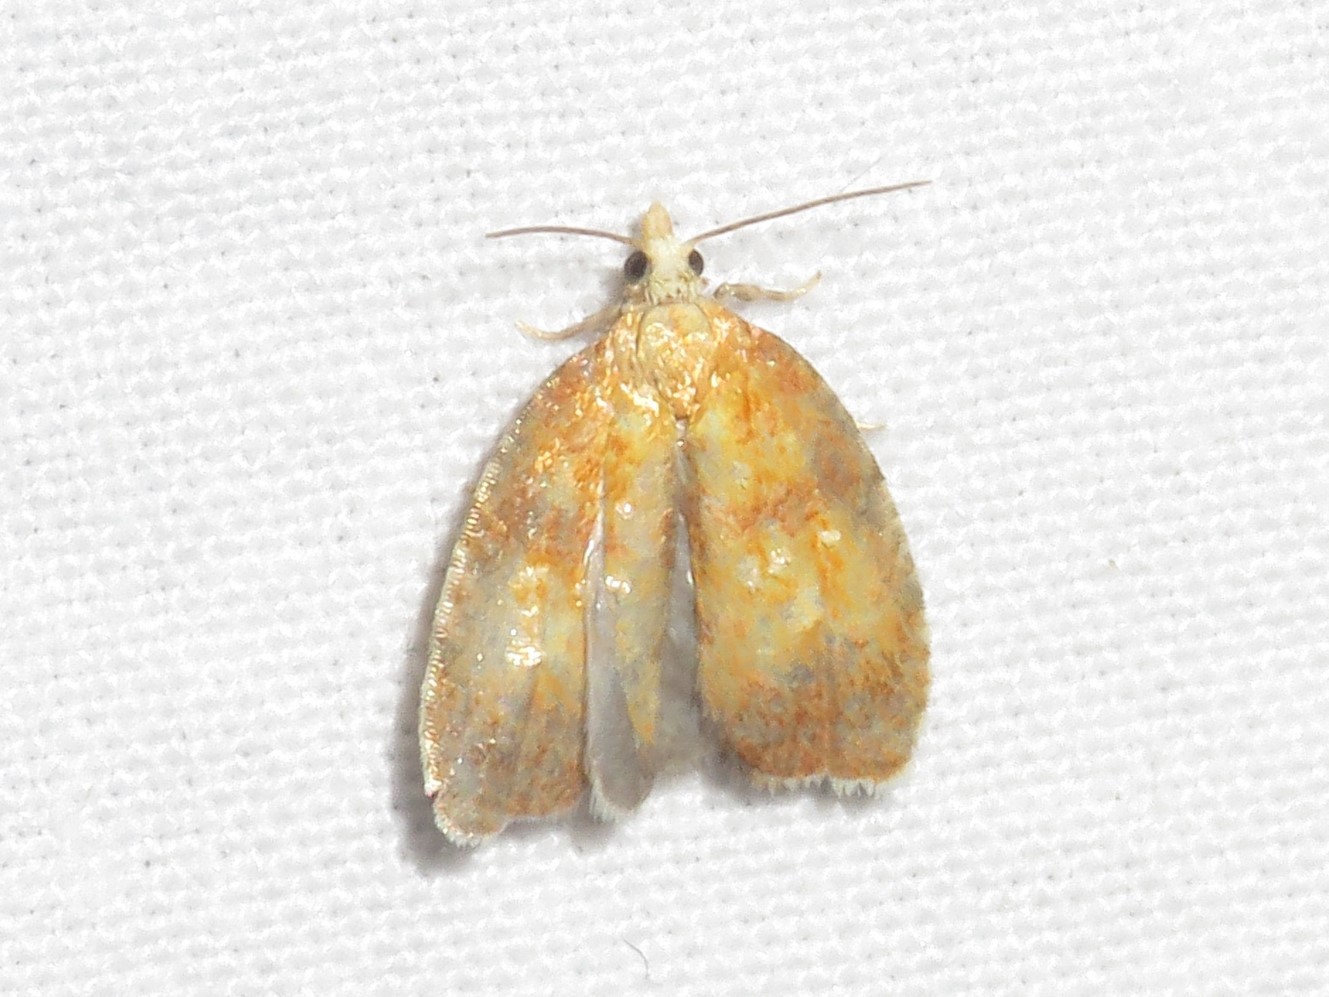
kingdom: Animalia
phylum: Arthropoda
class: Insecta
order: Lepidoptera
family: Tortricidae
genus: Acleris
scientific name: Acleris curvalana
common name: Blueberry leaftier moth
